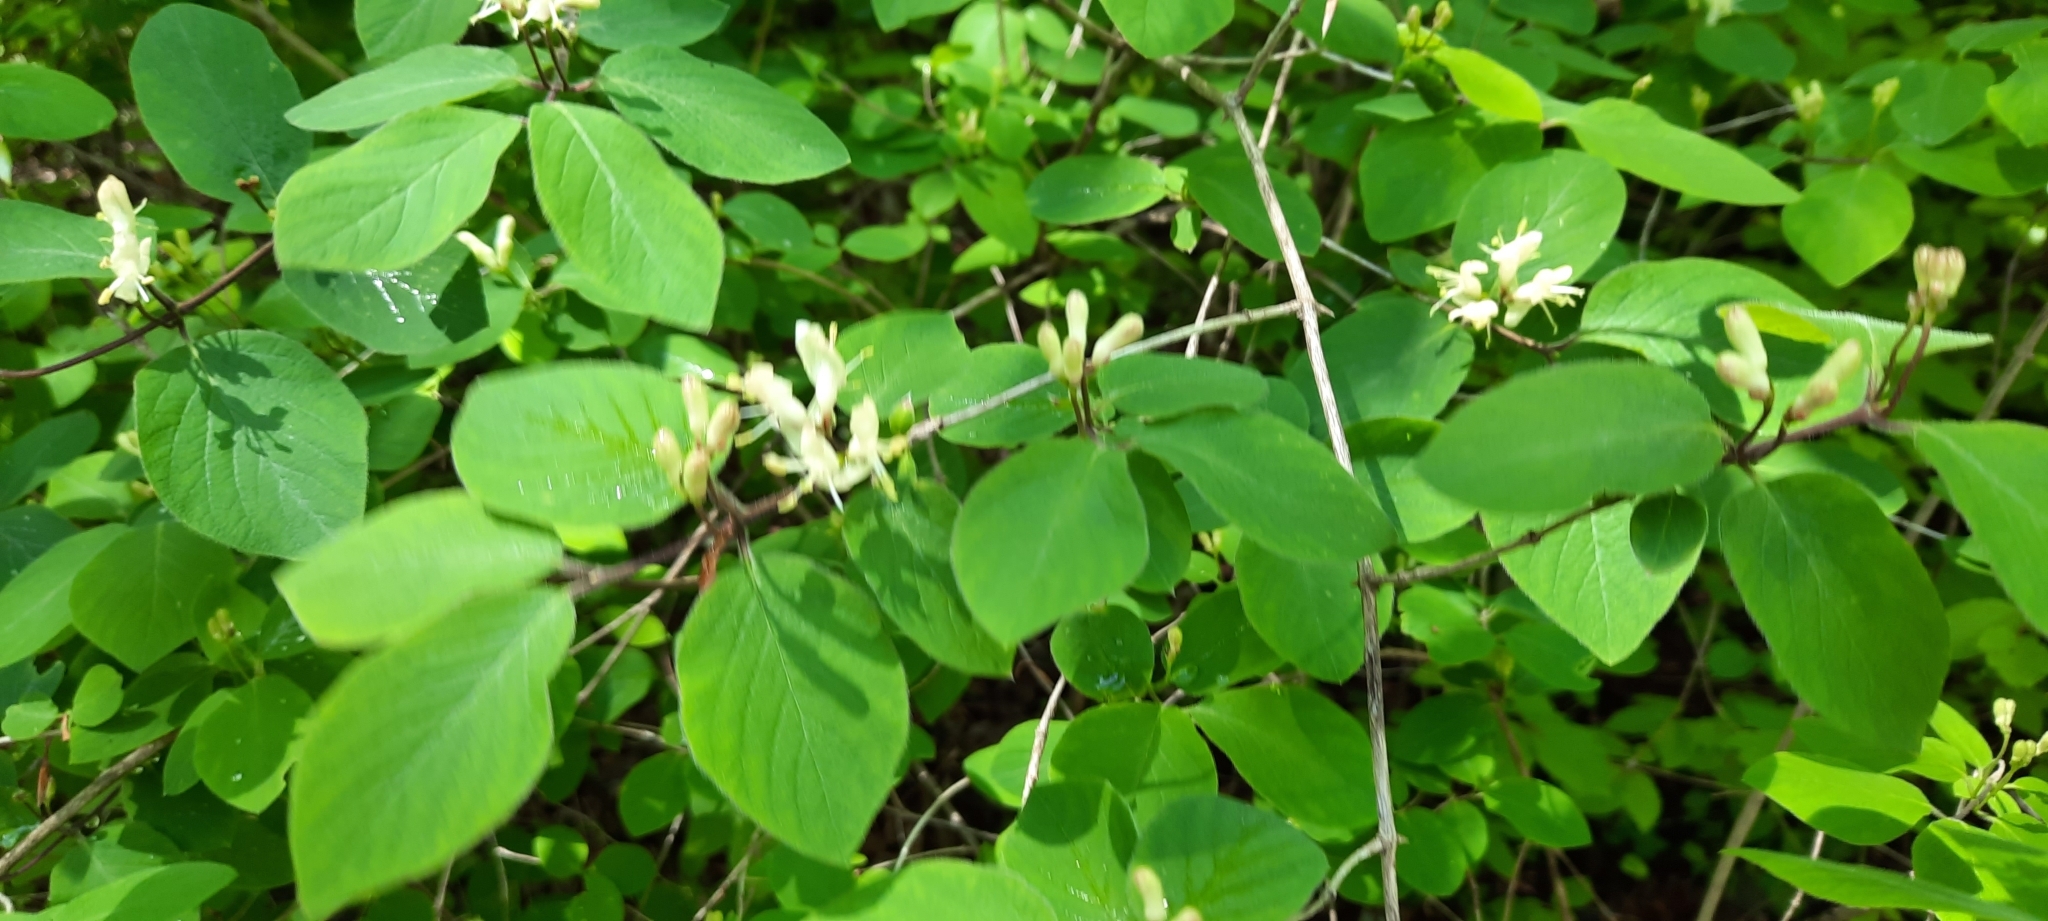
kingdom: Plantae
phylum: Tracheophyta
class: Magnoliopsida
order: Dipsacales
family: Caprifoliaceae
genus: Lonicera
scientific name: Lonicera xylosteum
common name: Fly honeysuckle
